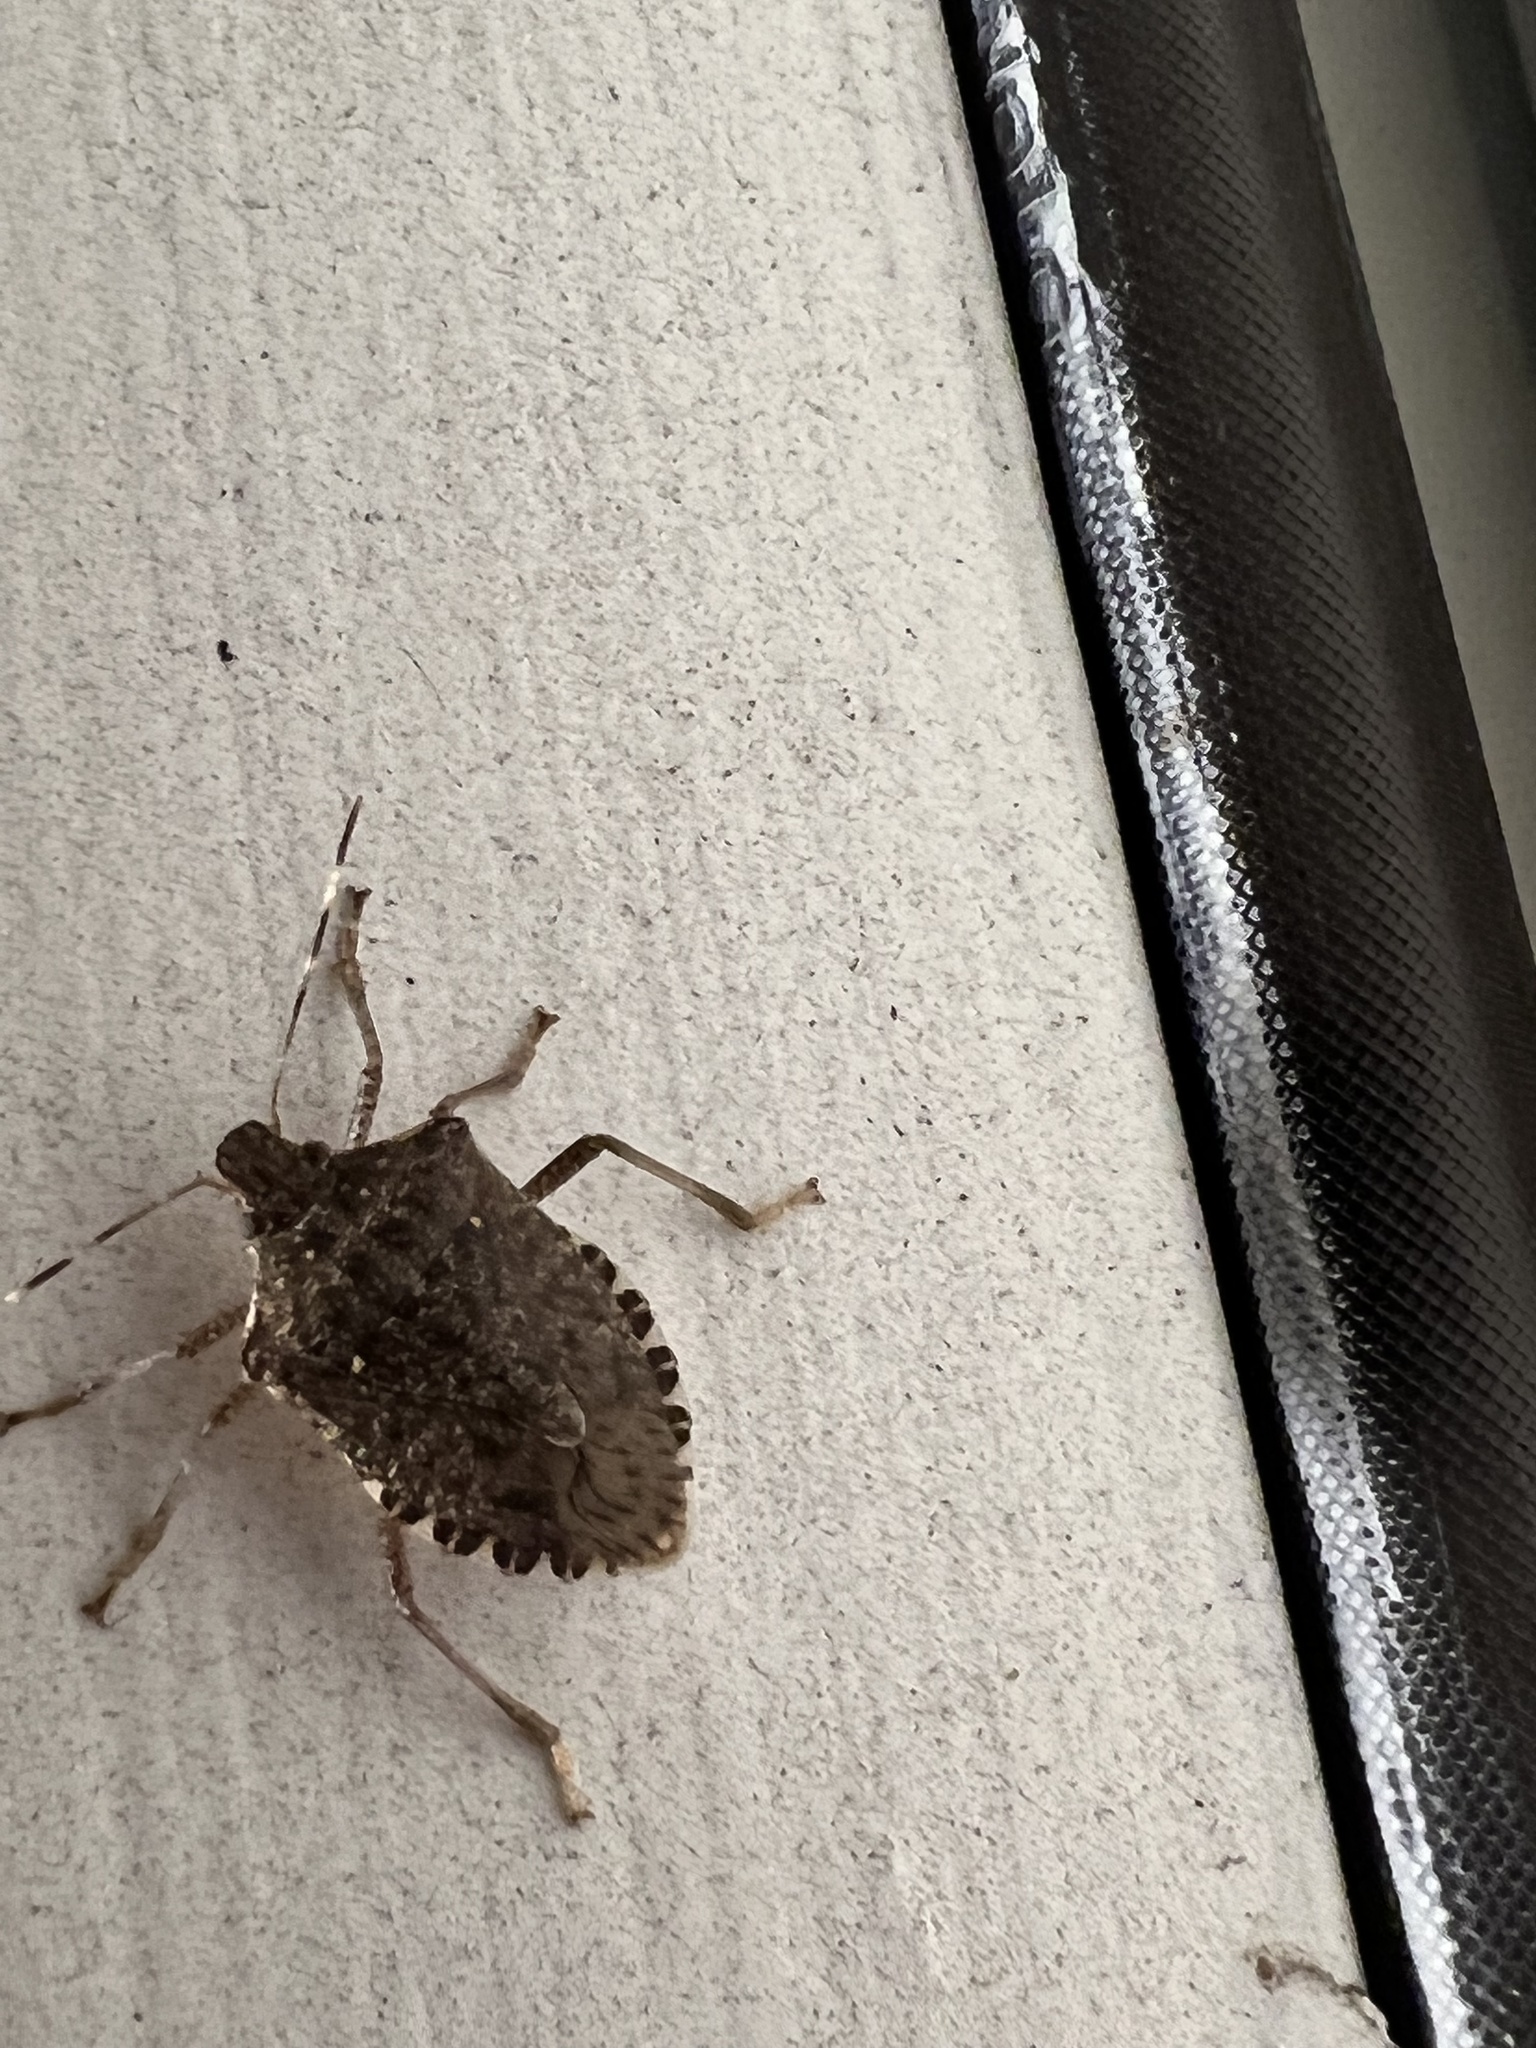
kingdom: Animalia
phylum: Arthropoda
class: Insecta
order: Hemiptera
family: Pentatomidae
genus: Halyomorpha
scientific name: Halyomorpha halys
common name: Brown marmorated stink bug
